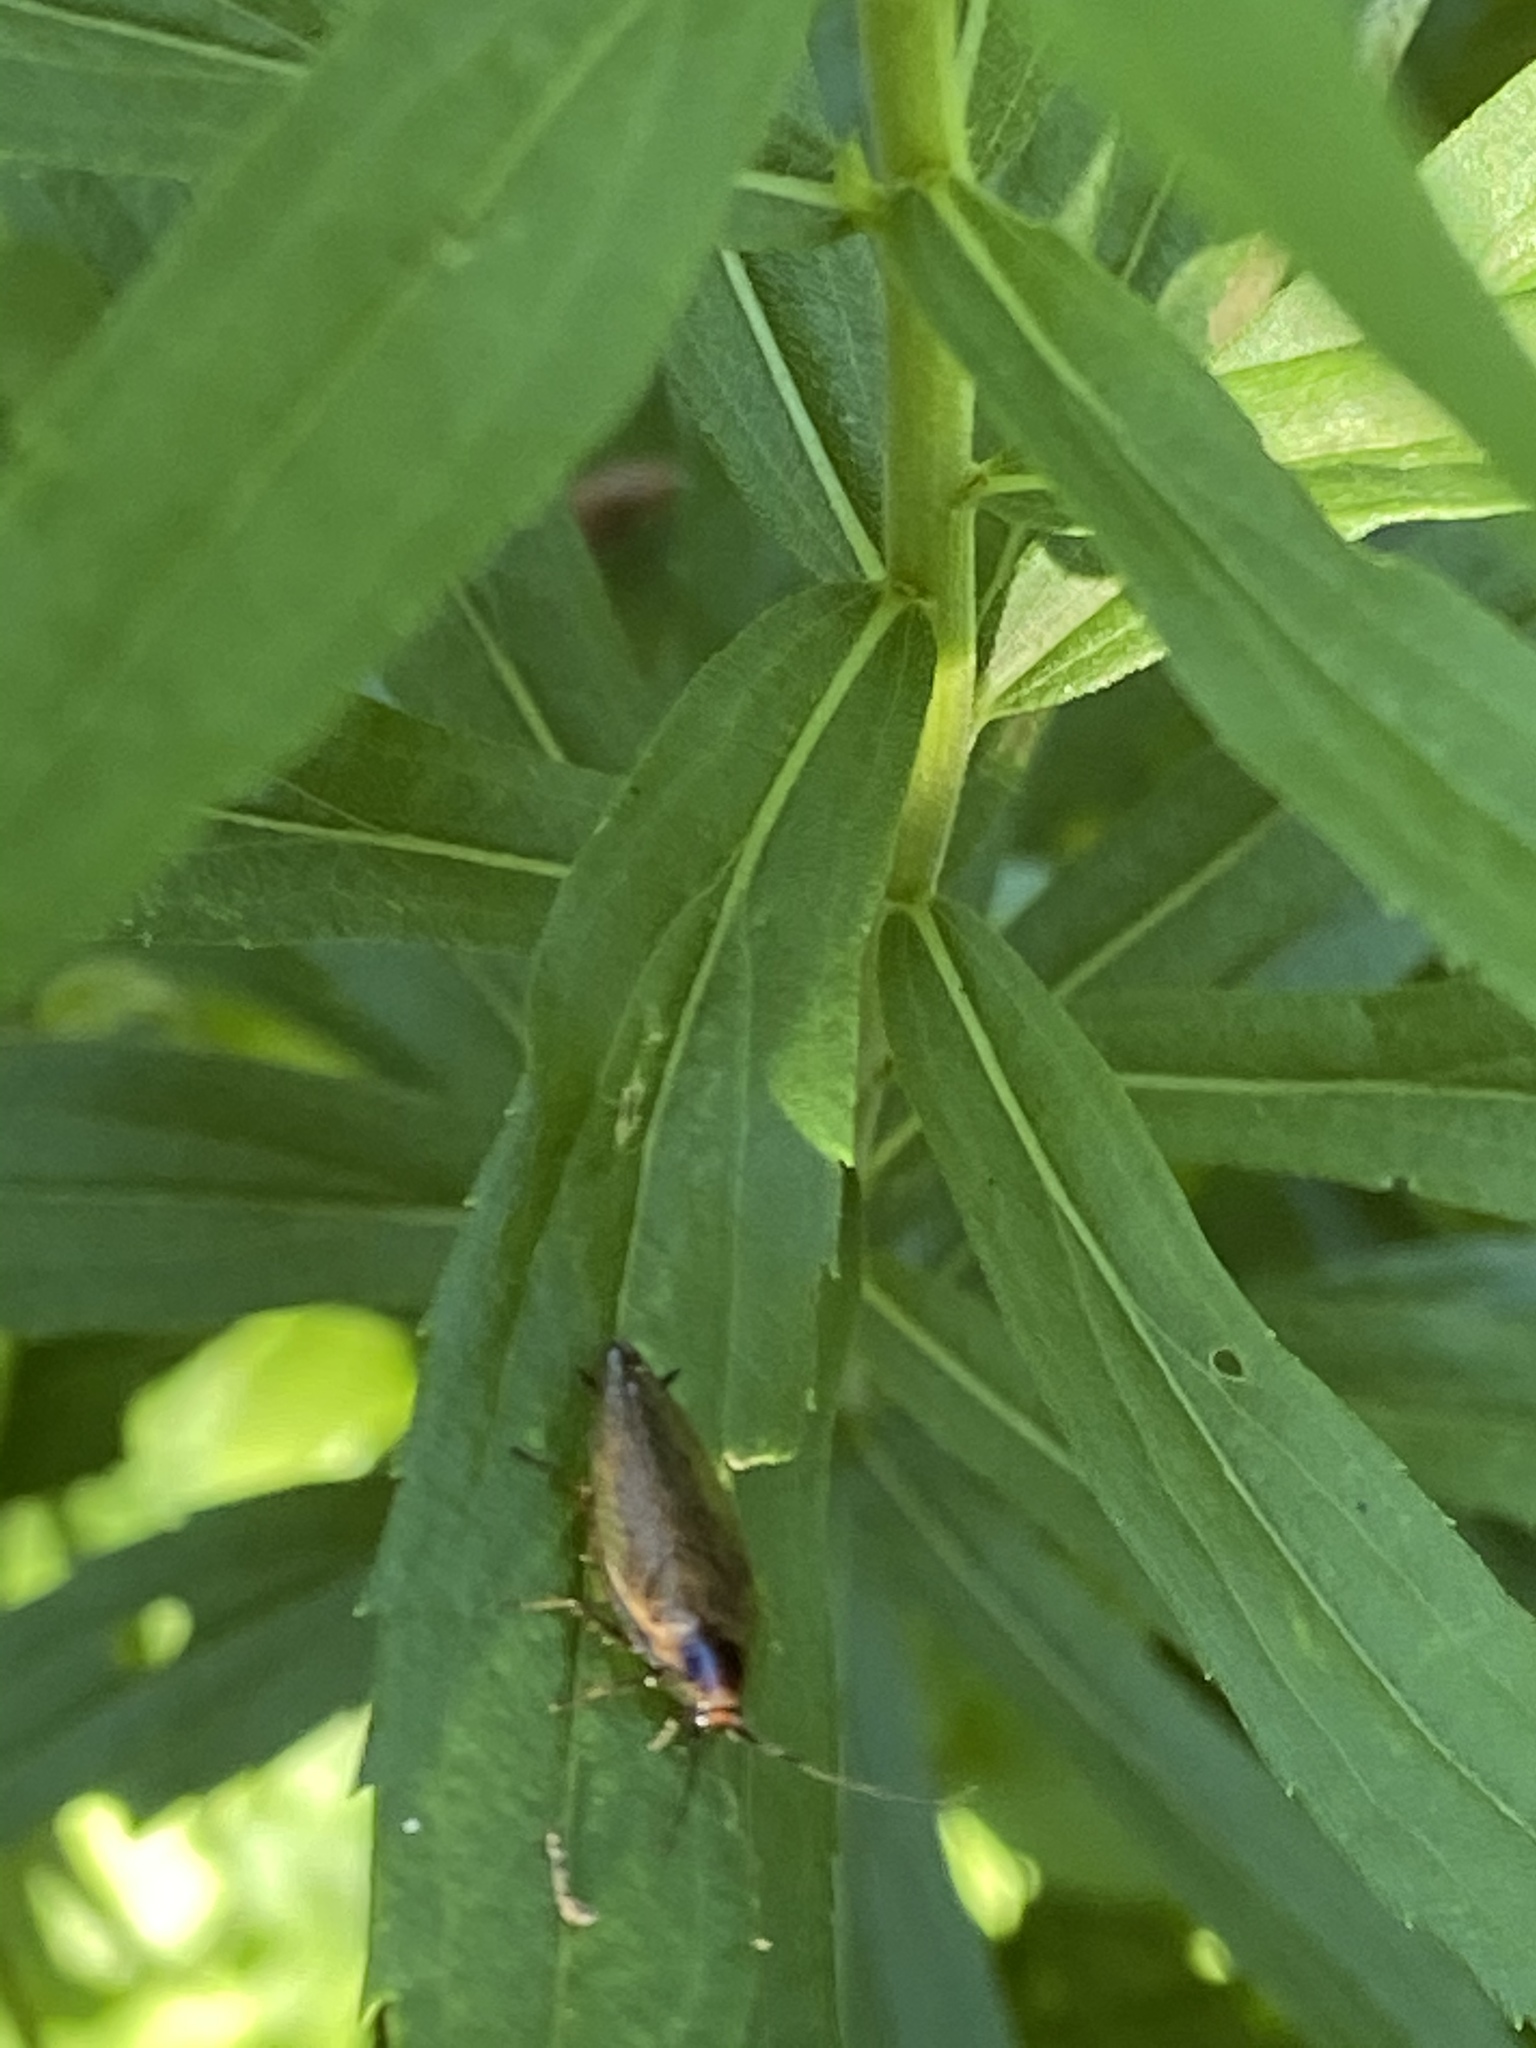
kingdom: Animalia
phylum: Arthropoda
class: Insecta
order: Blattodea
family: Ectobiidae
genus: Ectobius
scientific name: Ectobius lapponicus
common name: Dusky cockroach
